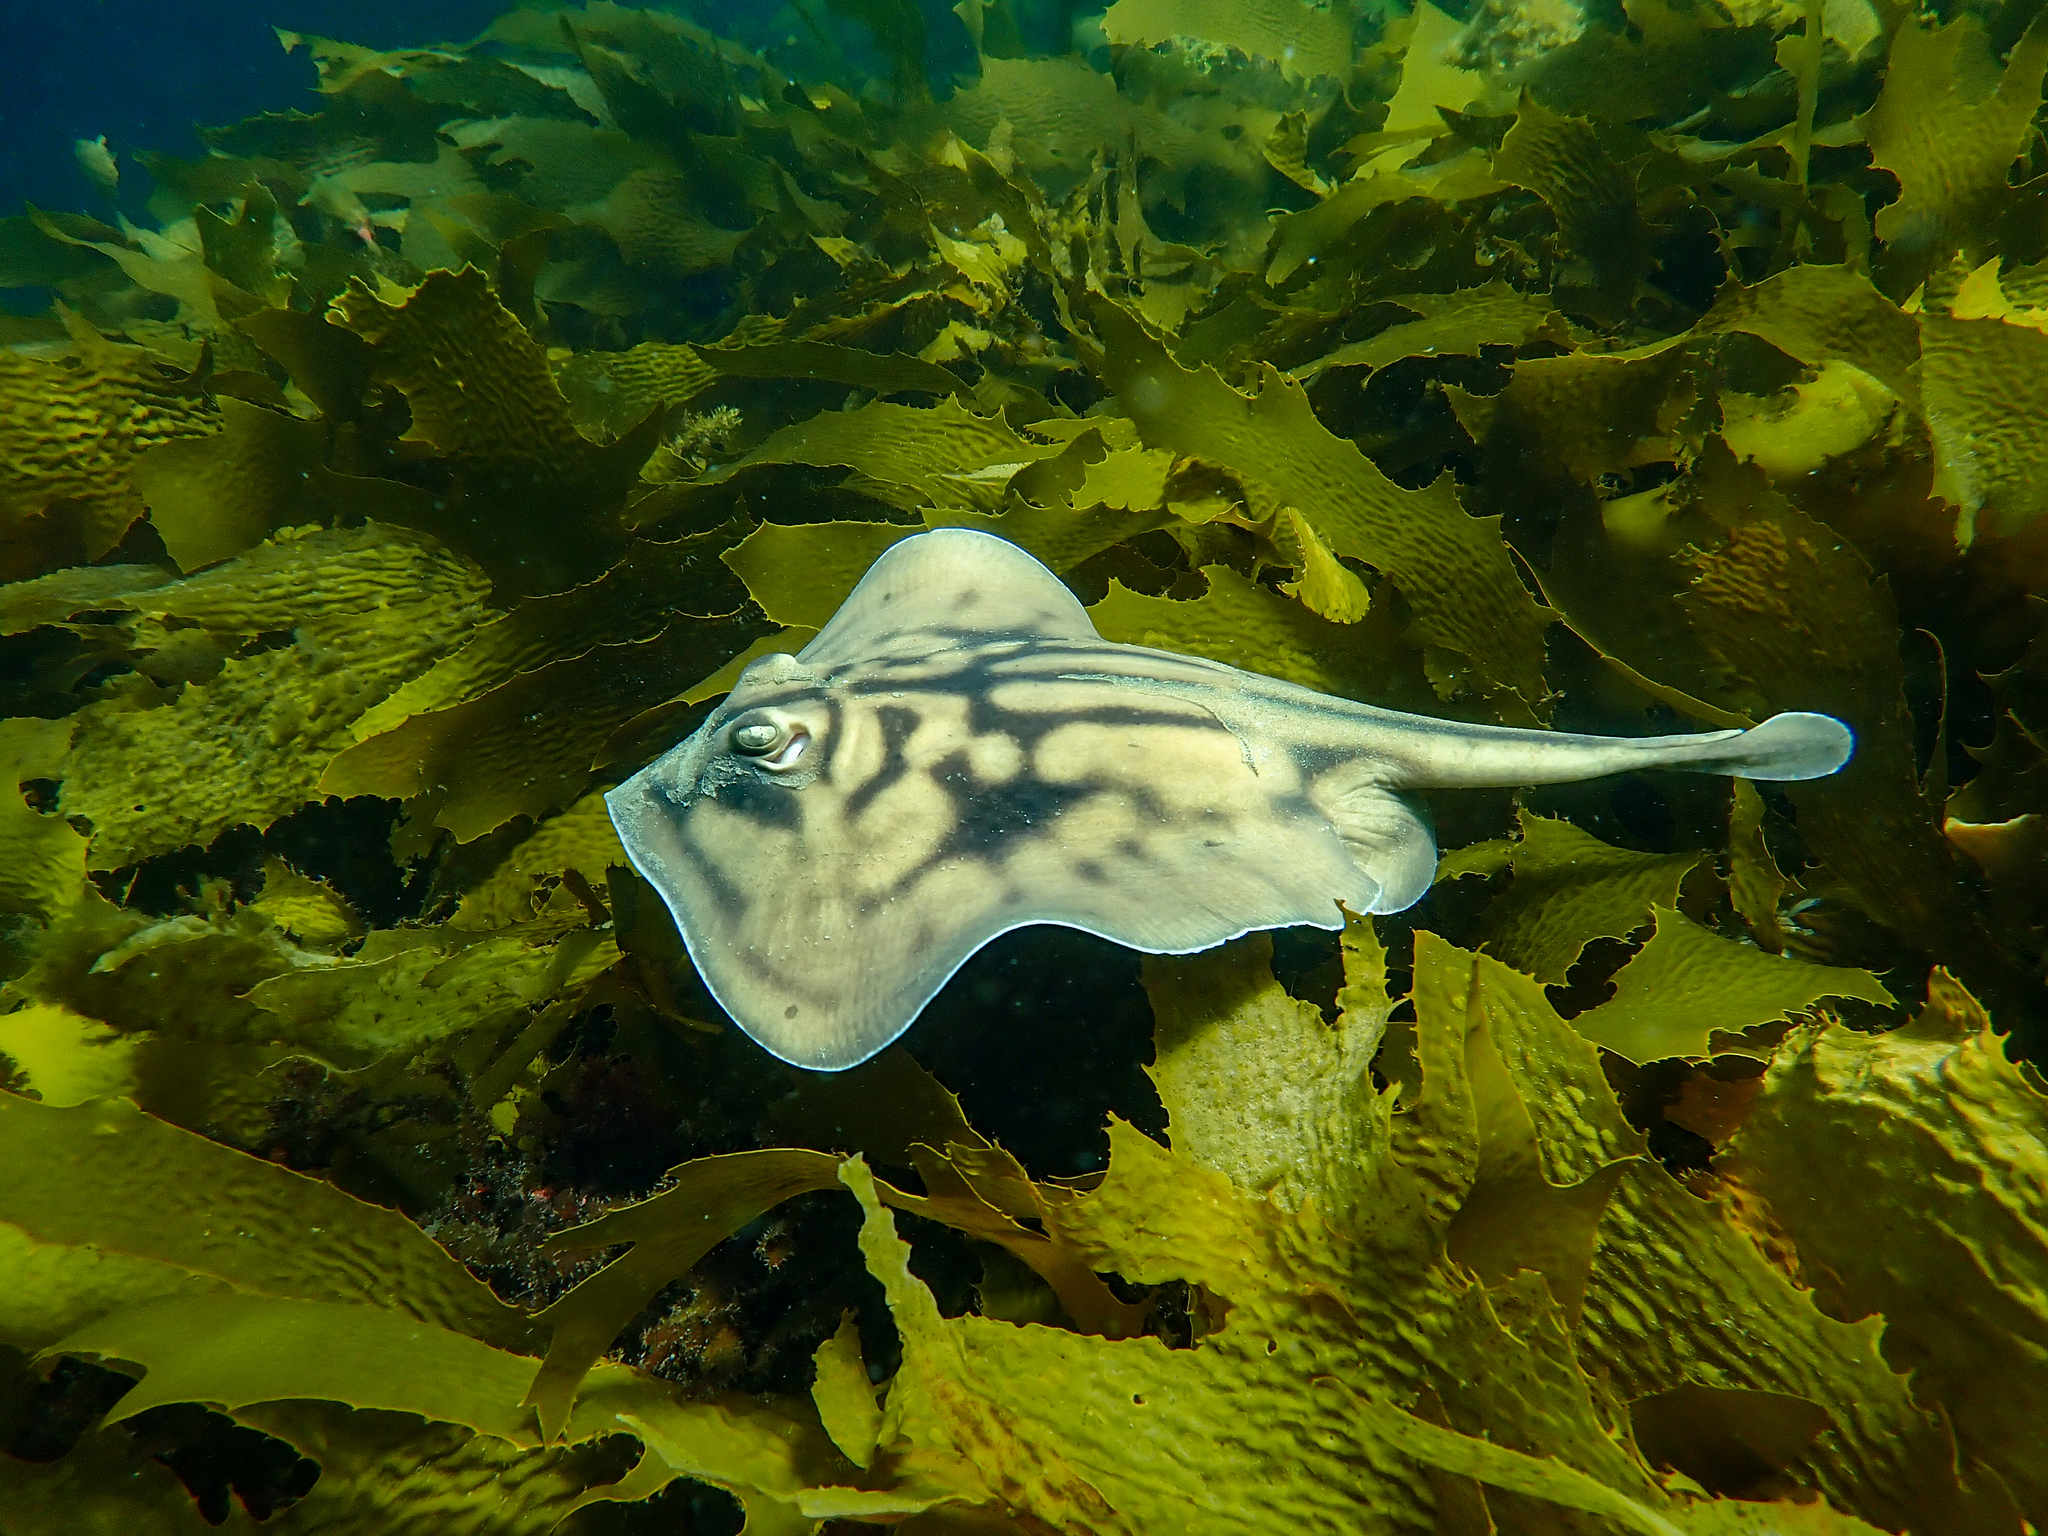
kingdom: Animalia
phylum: Chordata
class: Elasmobranchii
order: Myliobatiformes
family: Urolophidae
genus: Urolophus
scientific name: Urolophus cruciatus
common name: Banded stingaree
